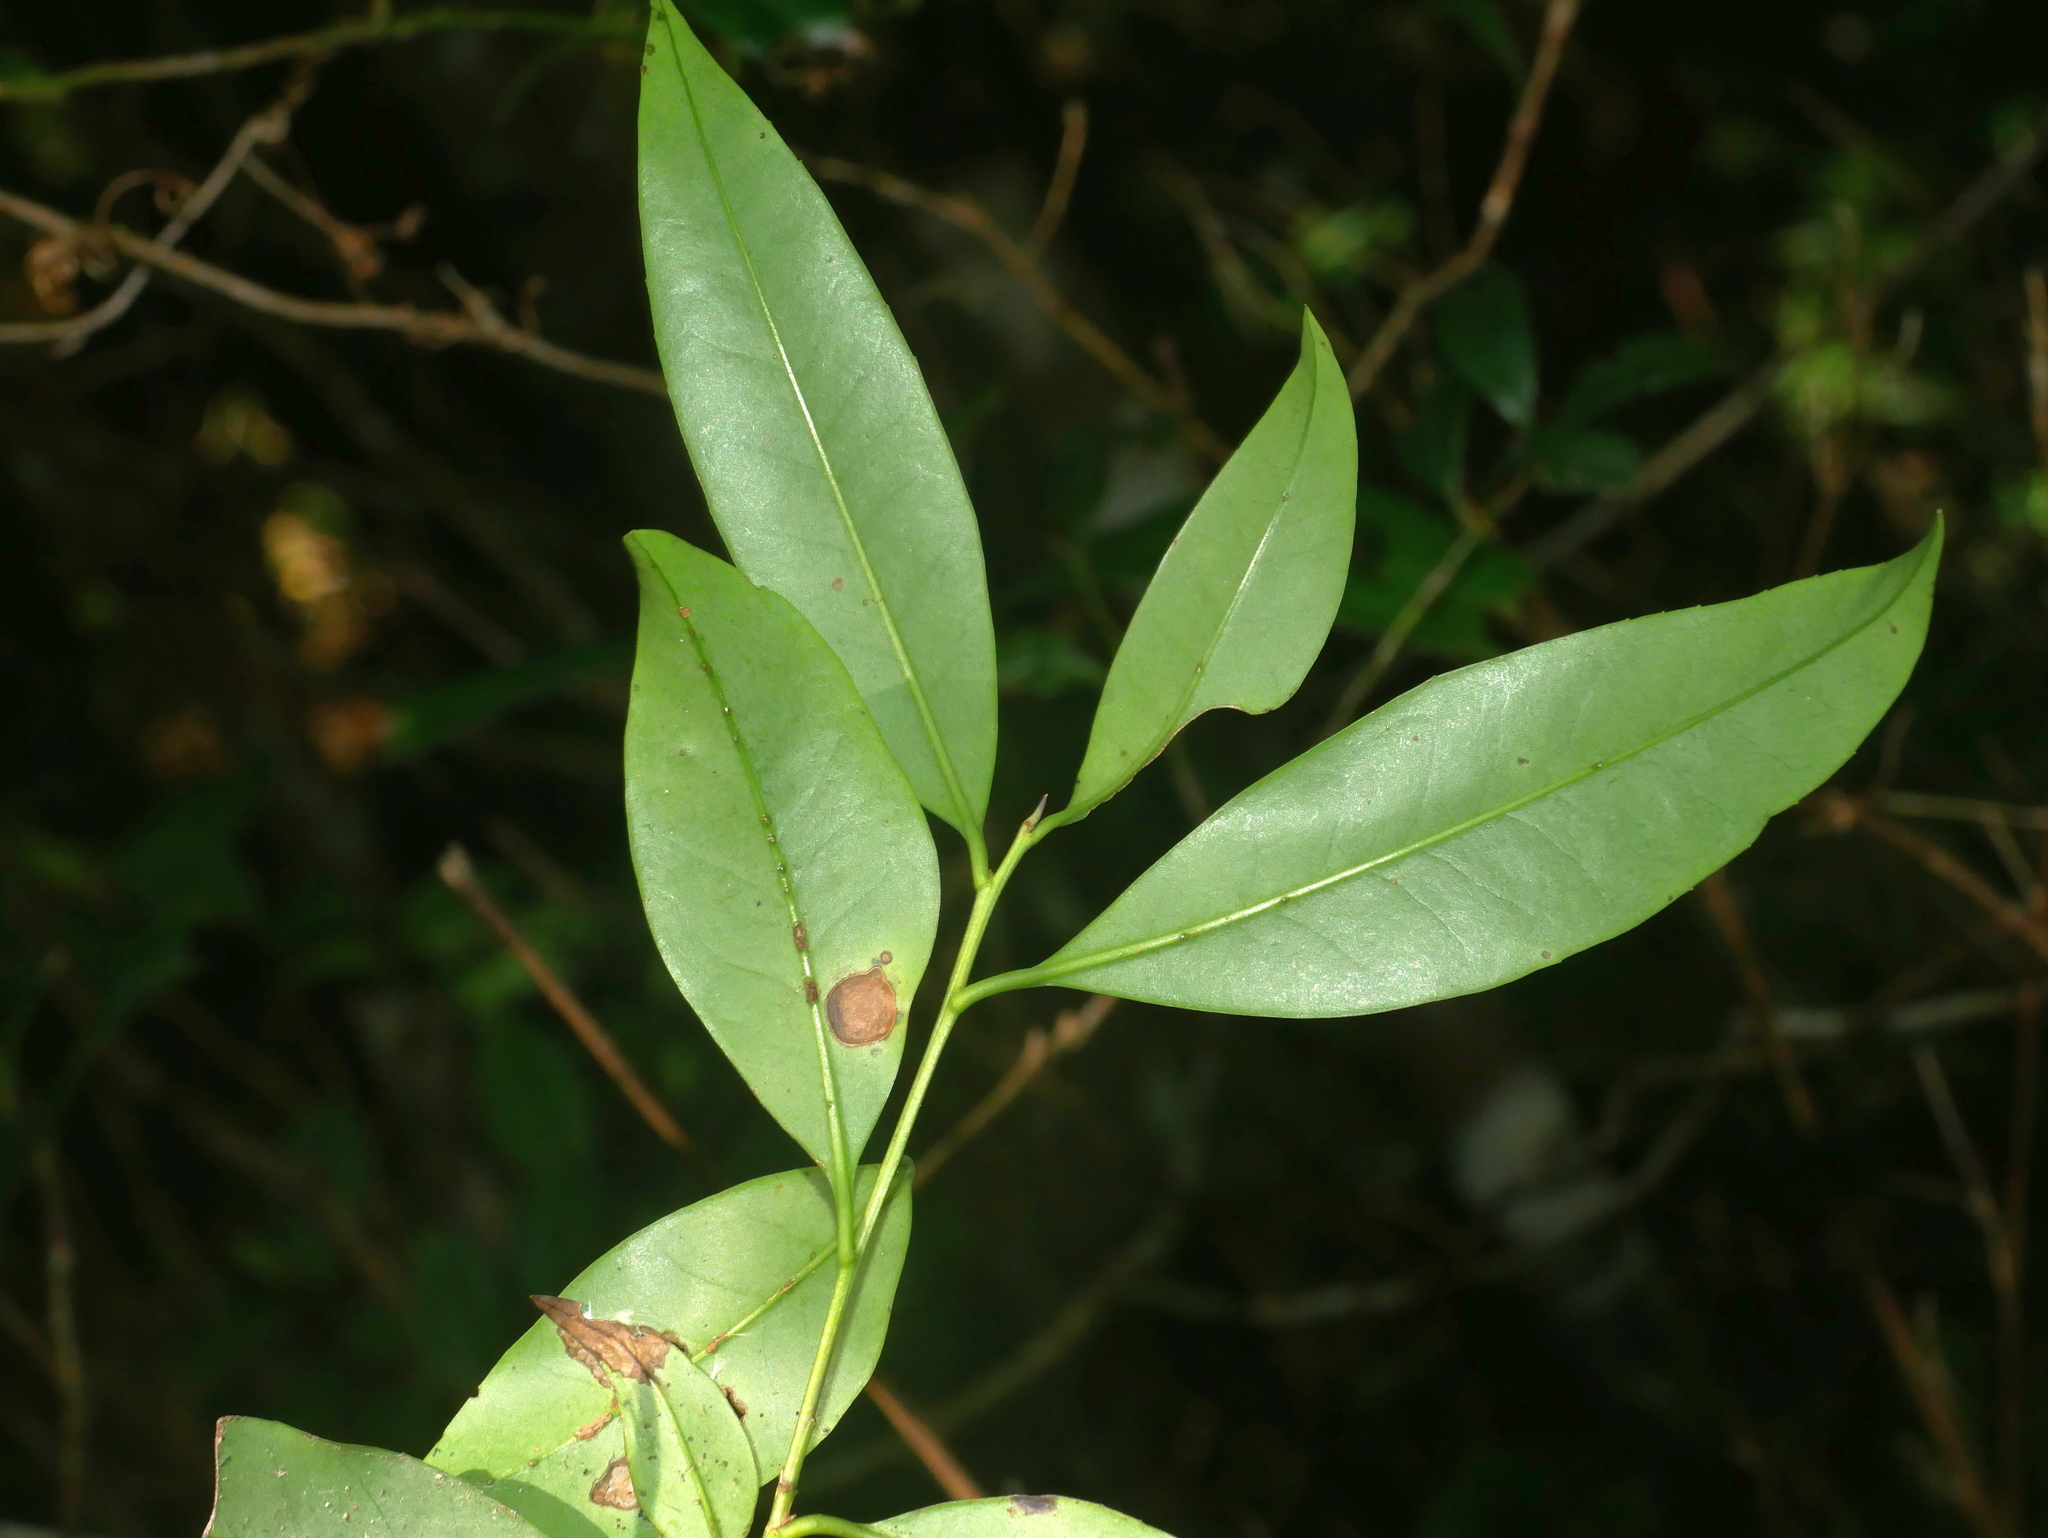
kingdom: Plantae
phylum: Tracheophyta
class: Magnoliopsida
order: Aquifoliales
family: Aquifoliaceae
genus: Ilex
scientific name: Ilex lonicerifolia
